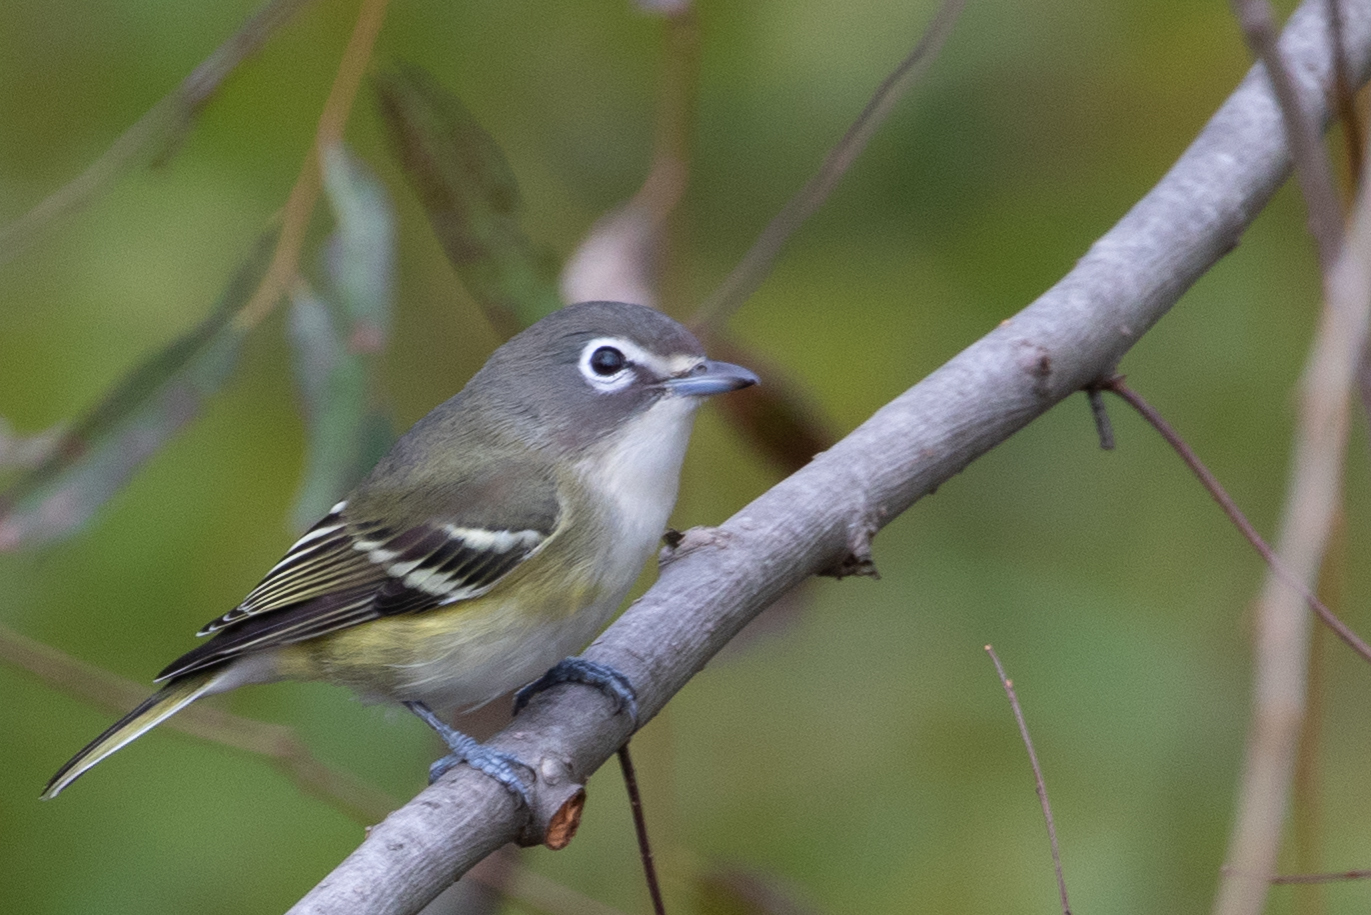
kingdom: Animalia
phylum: Chordata
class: Aves
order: Passeriformes
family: Vireonidae
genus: Vireo
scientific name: Vireo solitarius
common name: Blue-headed vireo
